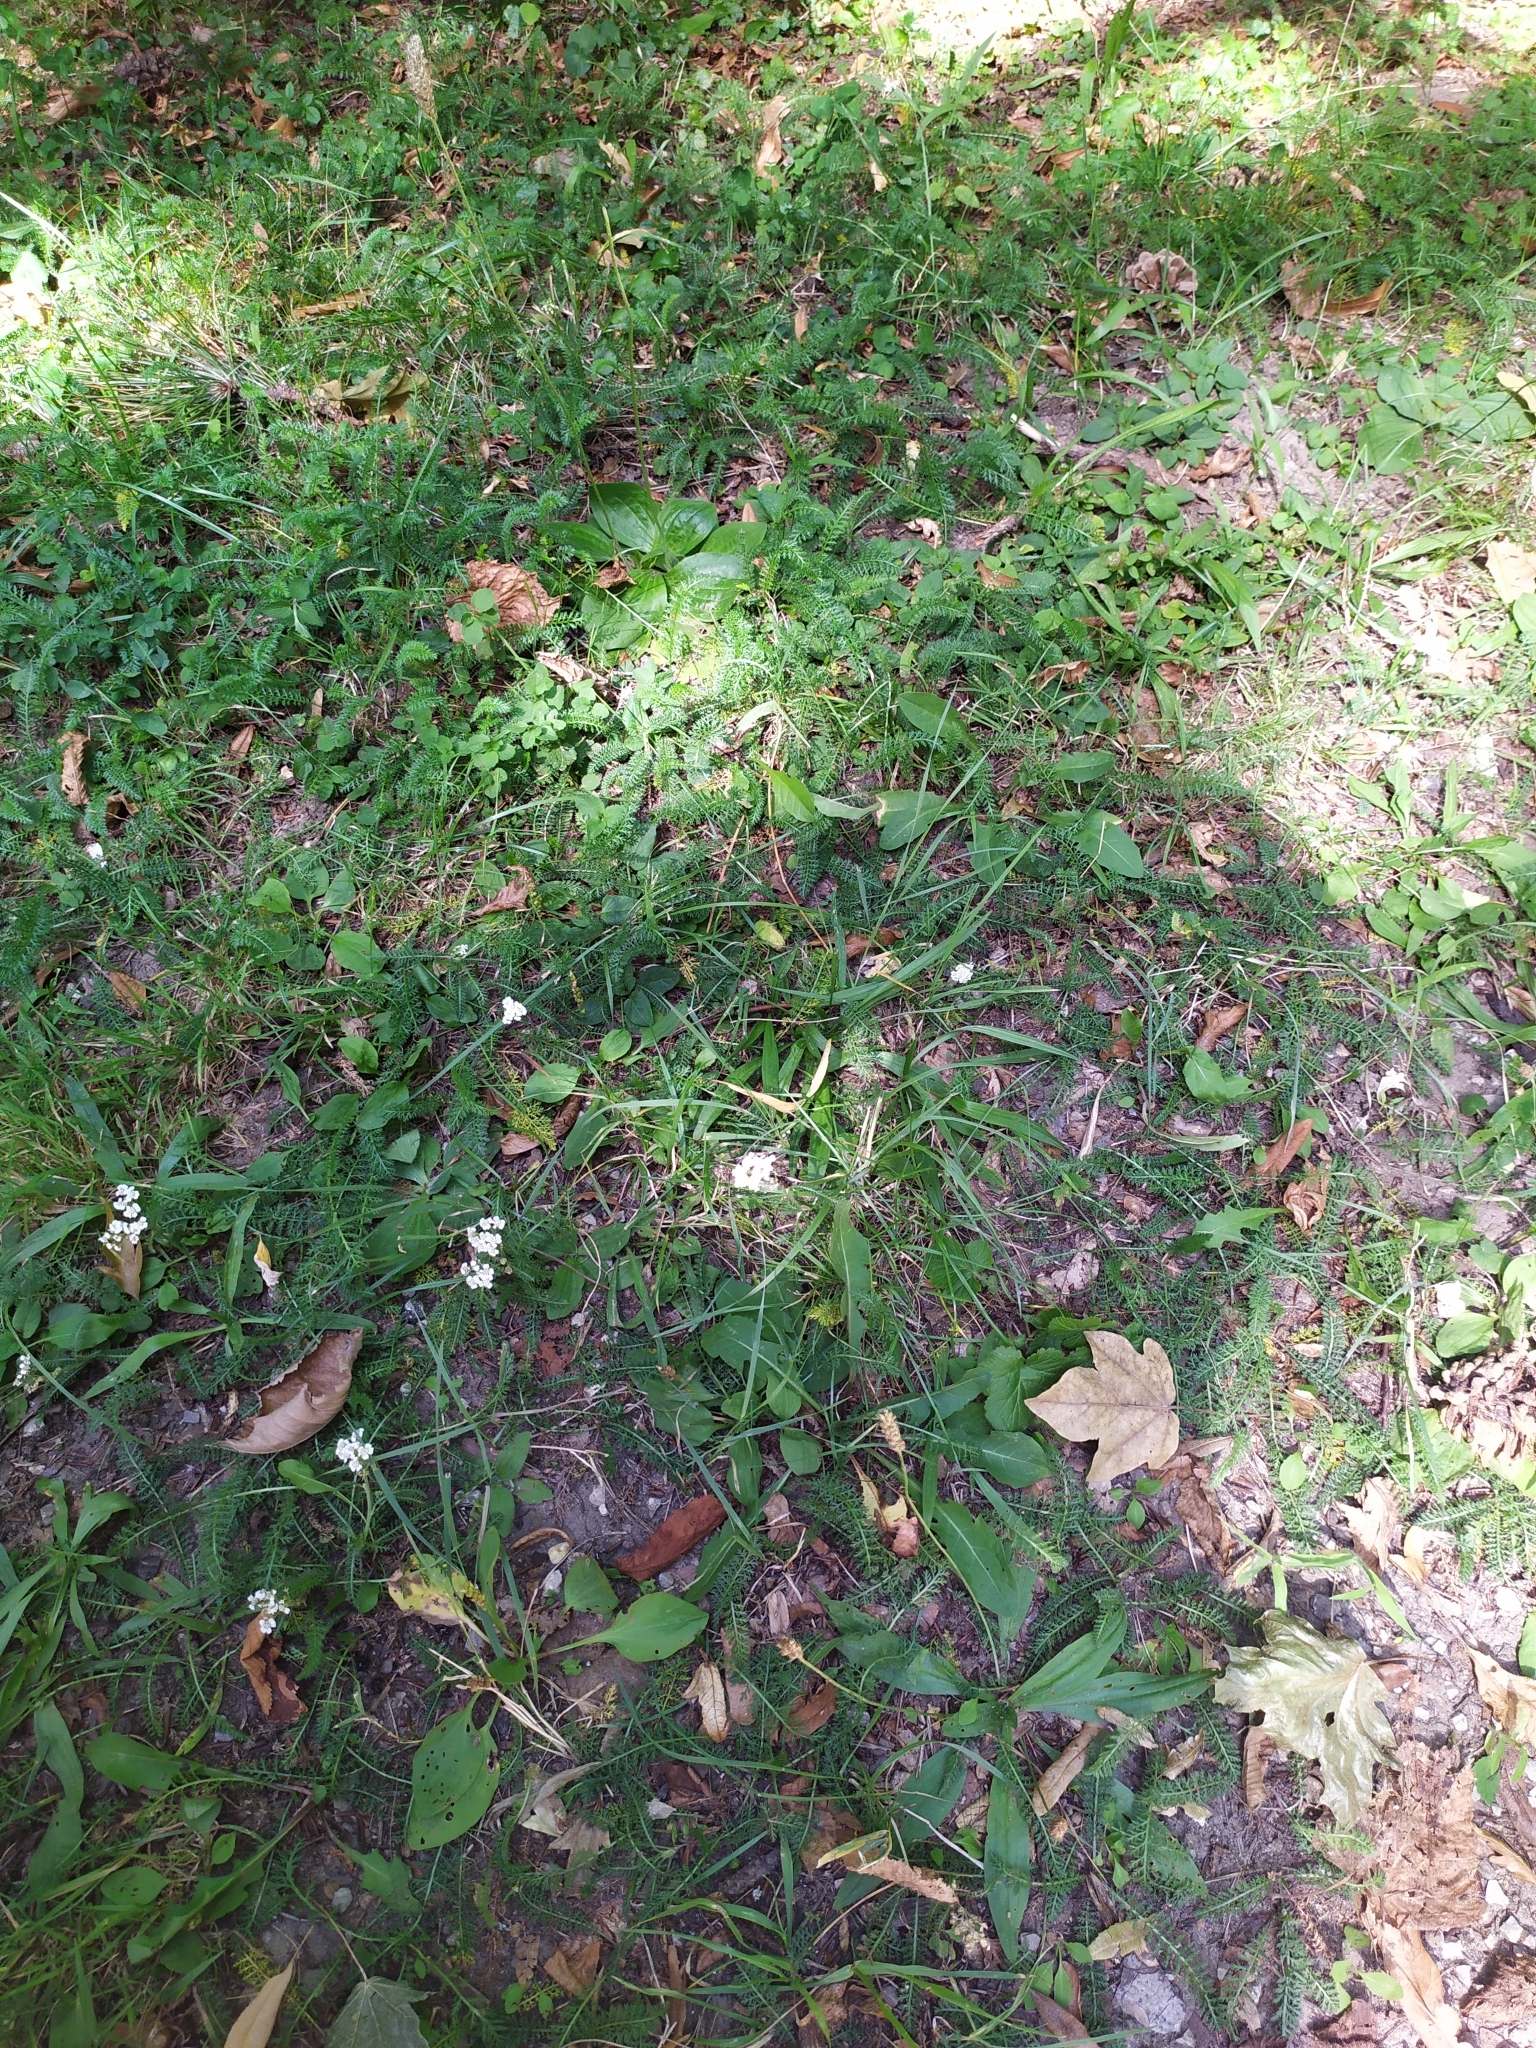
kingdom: Plantae
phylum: Tracheophyta
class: Magnoliopsida
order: Lamiales
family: Plantaginaceae
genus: Plantago
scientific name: Plantago media
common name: Hoary plantain
